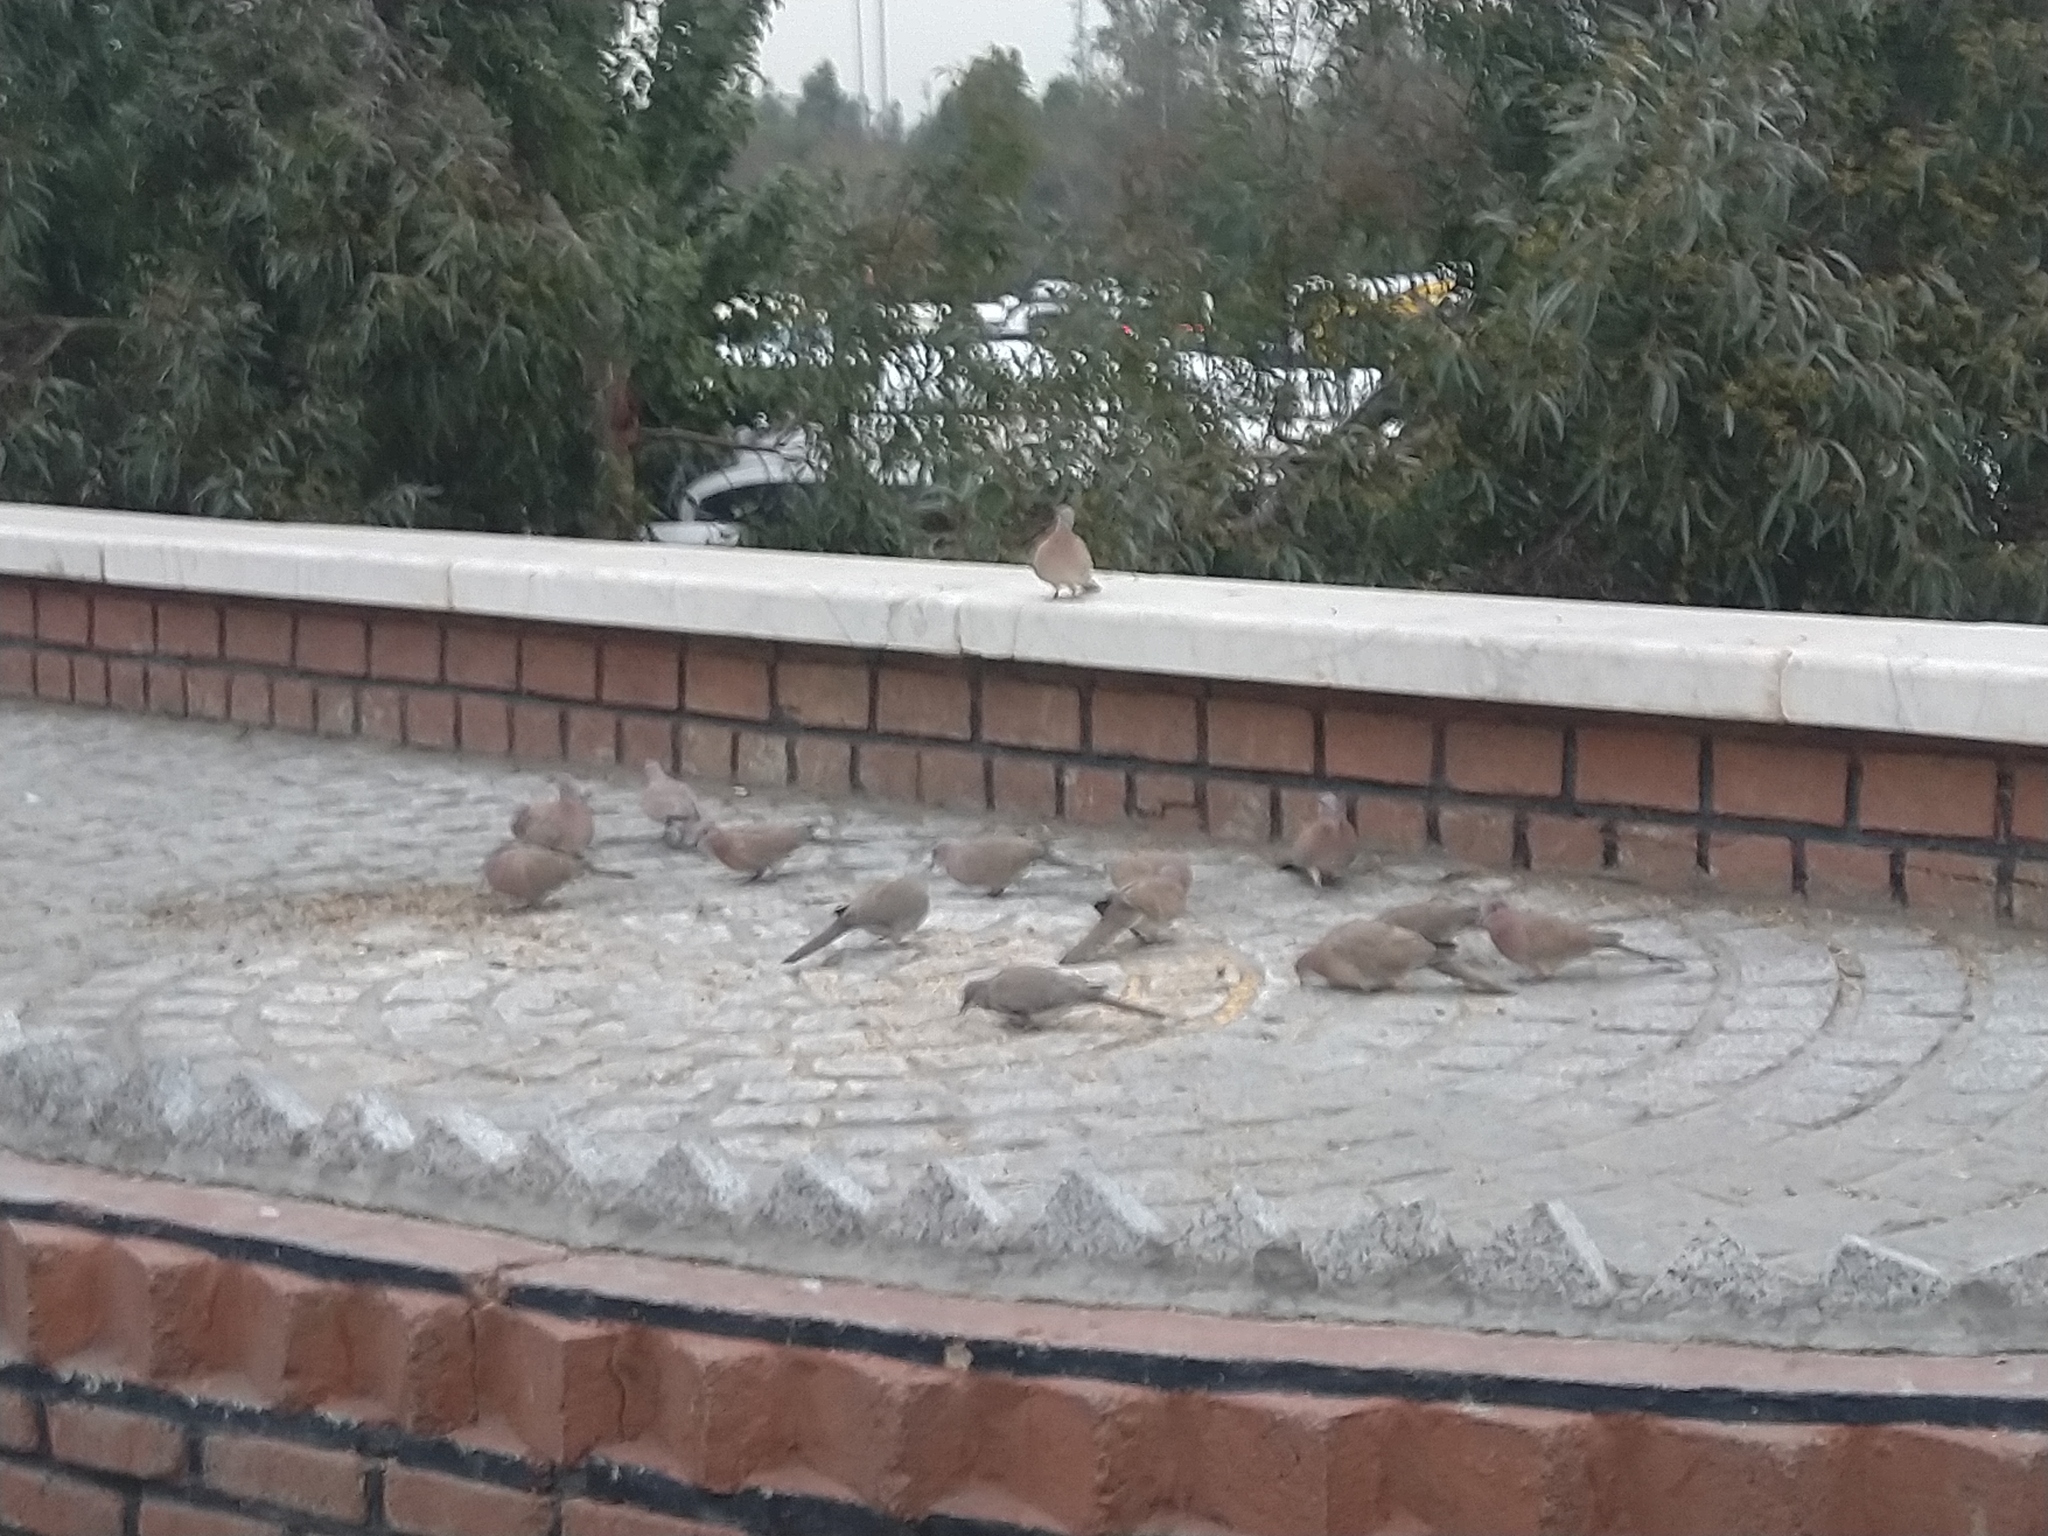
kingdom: Animalia
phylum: Chordata
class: Aves
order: Columbiformes
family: Columbidae
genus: Spilopelia
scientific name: Spilopelia senegalensis
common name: Laughing dove
